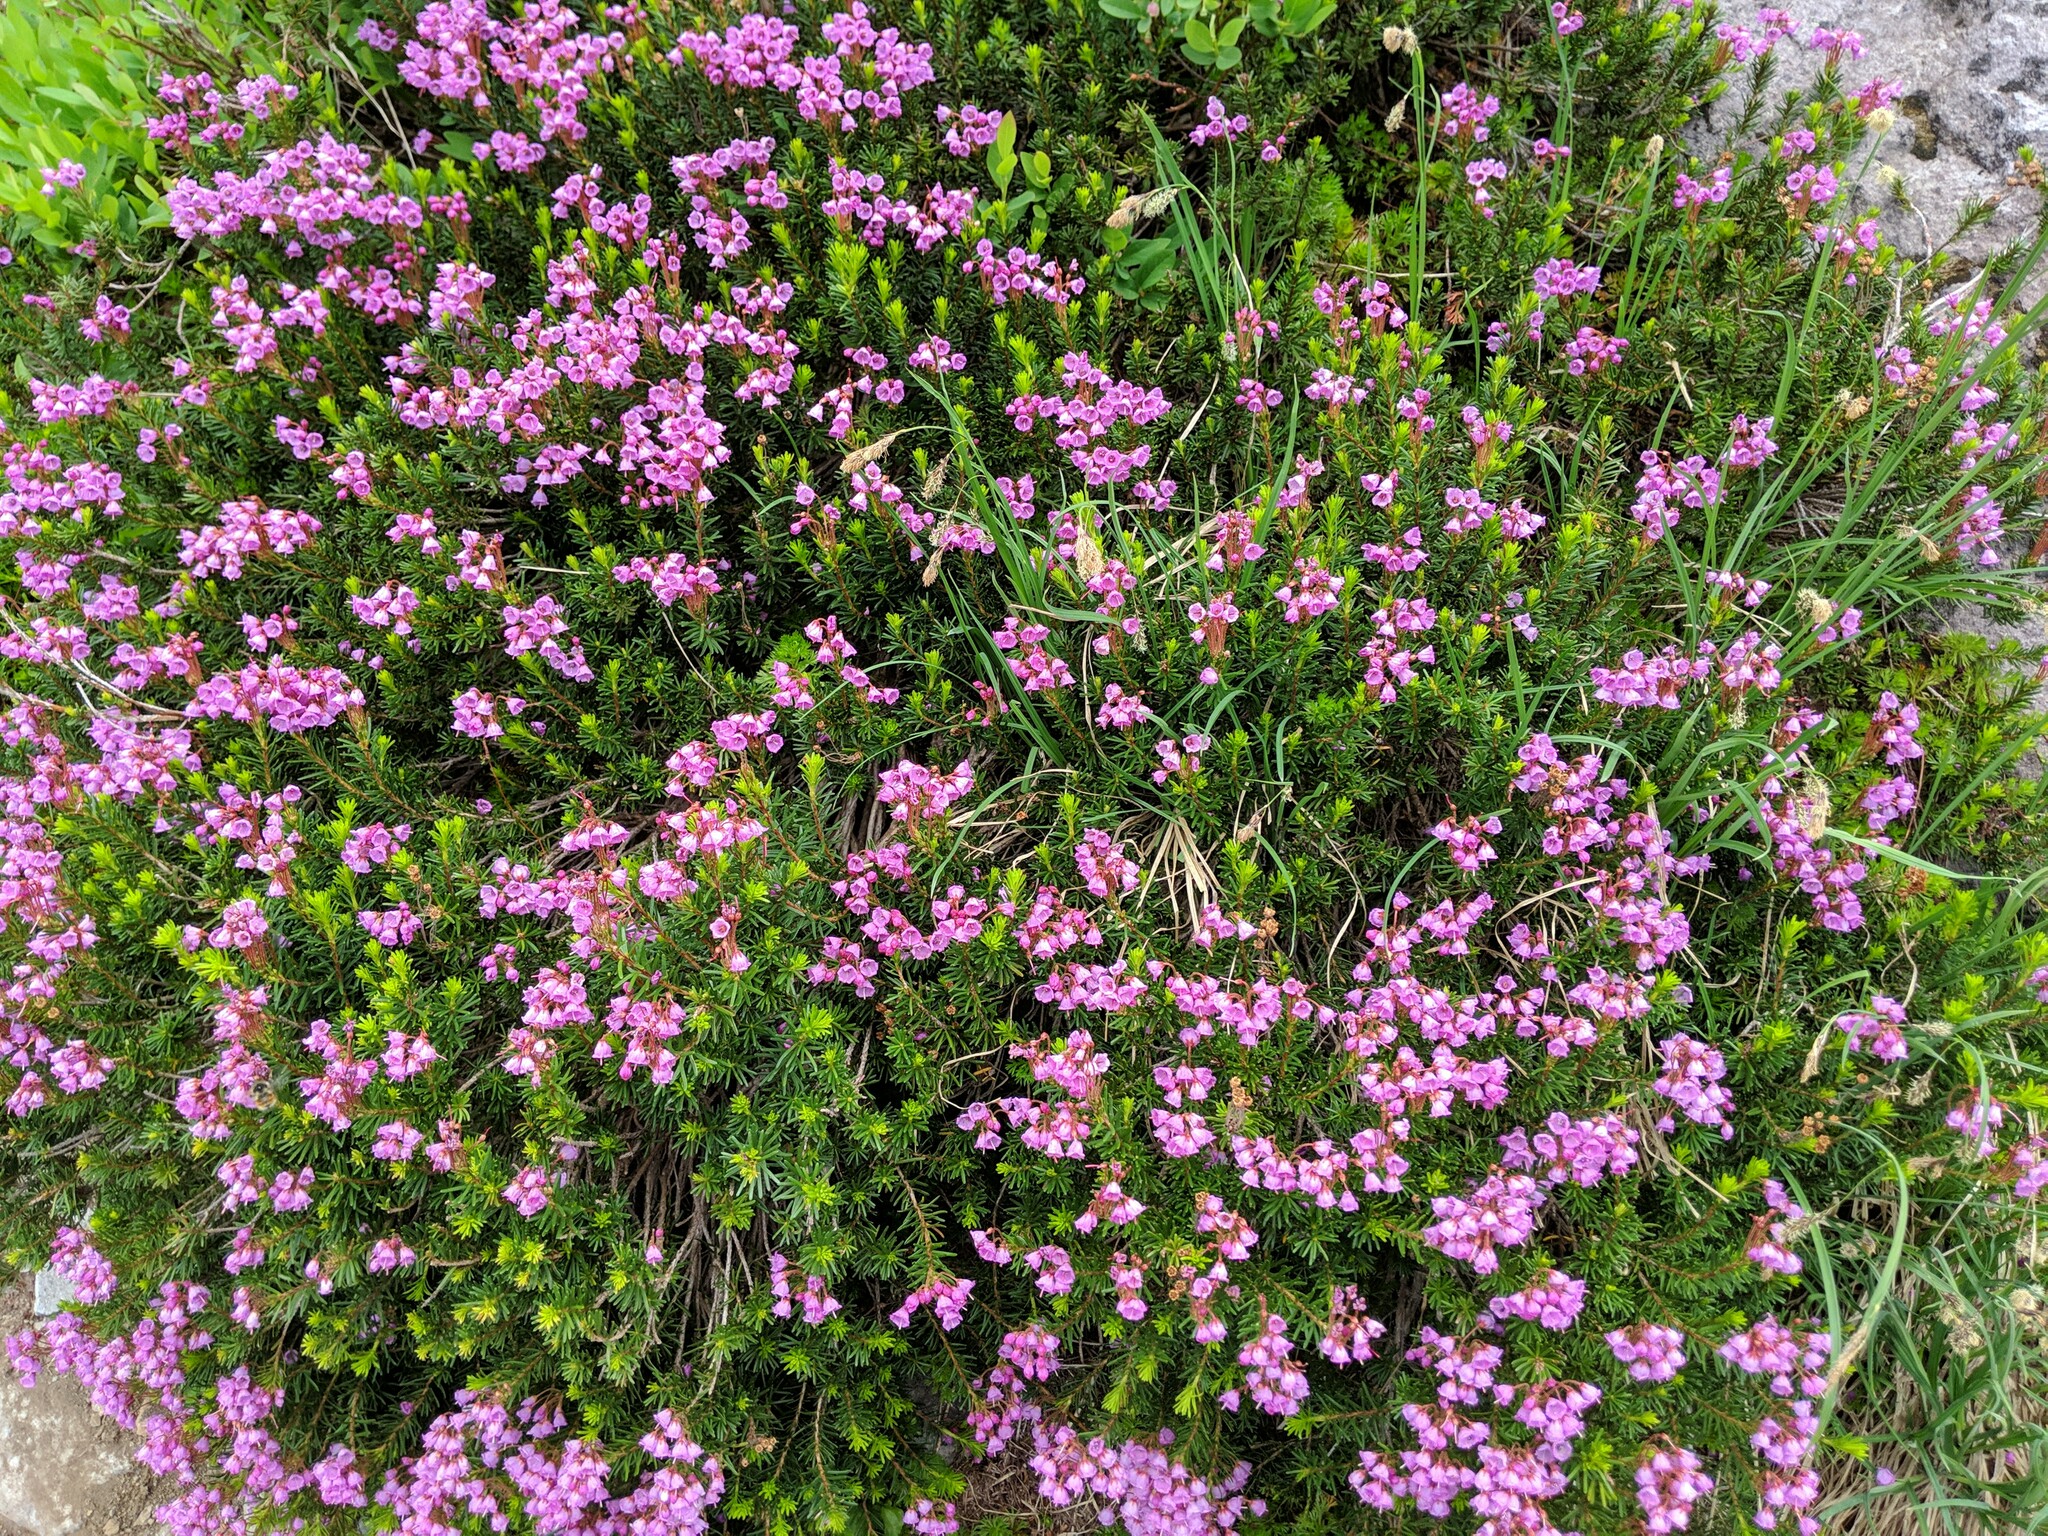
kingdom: Plantae
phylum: Tracheophyta
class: Magnoliopsida
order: Ericales
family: Ericaceae
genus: Phyllodoce
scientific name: Phyllodoce empetriformis
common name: Pink mountain heather
